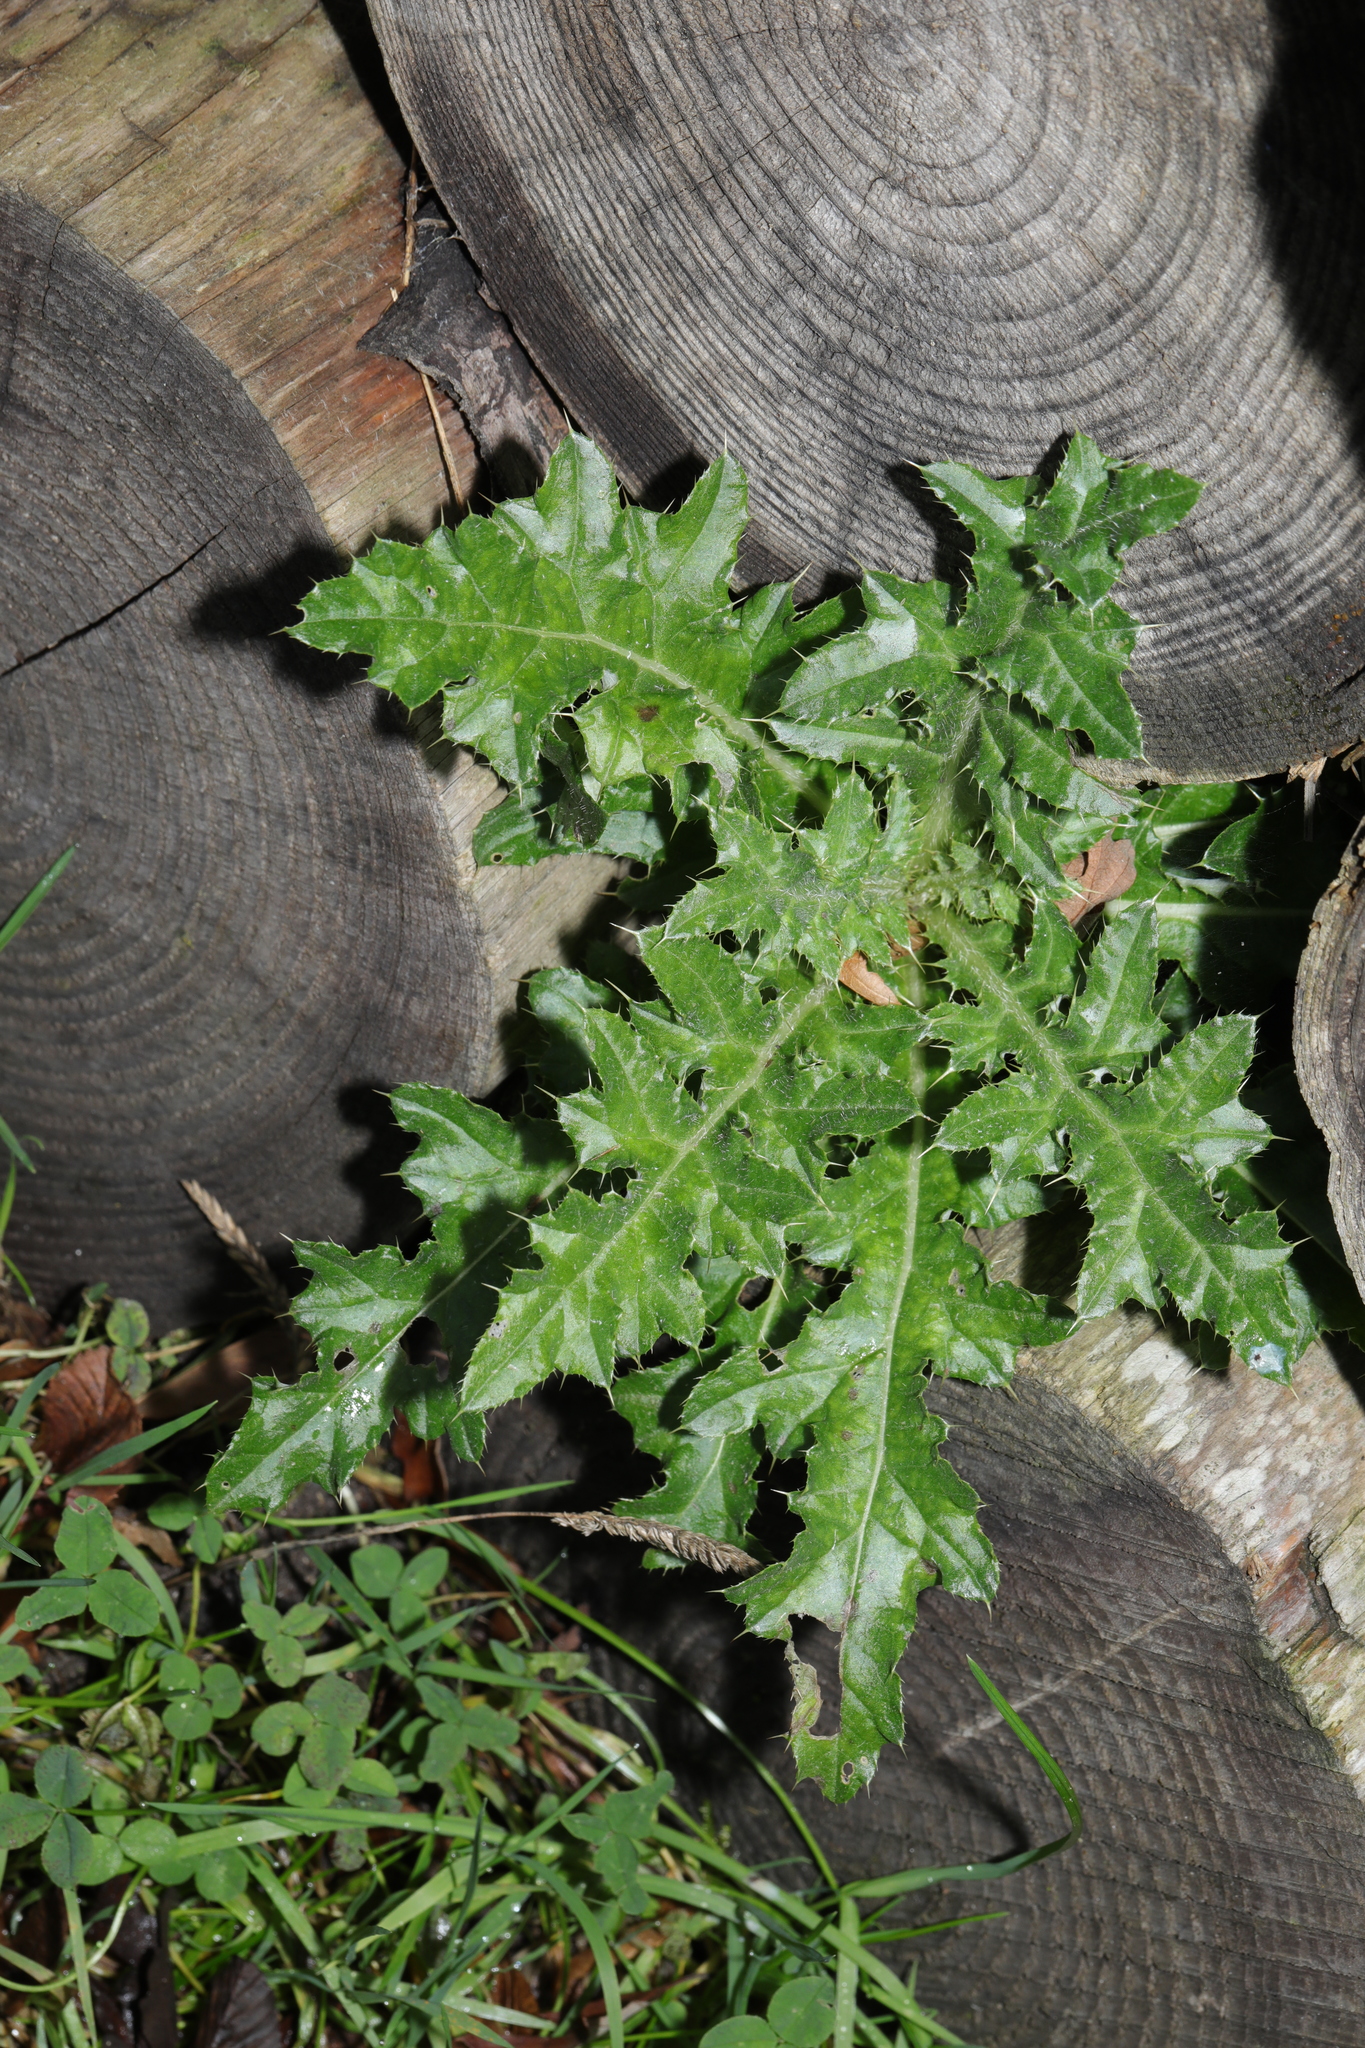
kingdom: Plantae
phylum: Tracheophyta
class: Magnoliopsida
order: Asterales
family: Asteraceae
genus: Cirsium
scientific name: Cirsium arvense
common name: Creeping thistle
